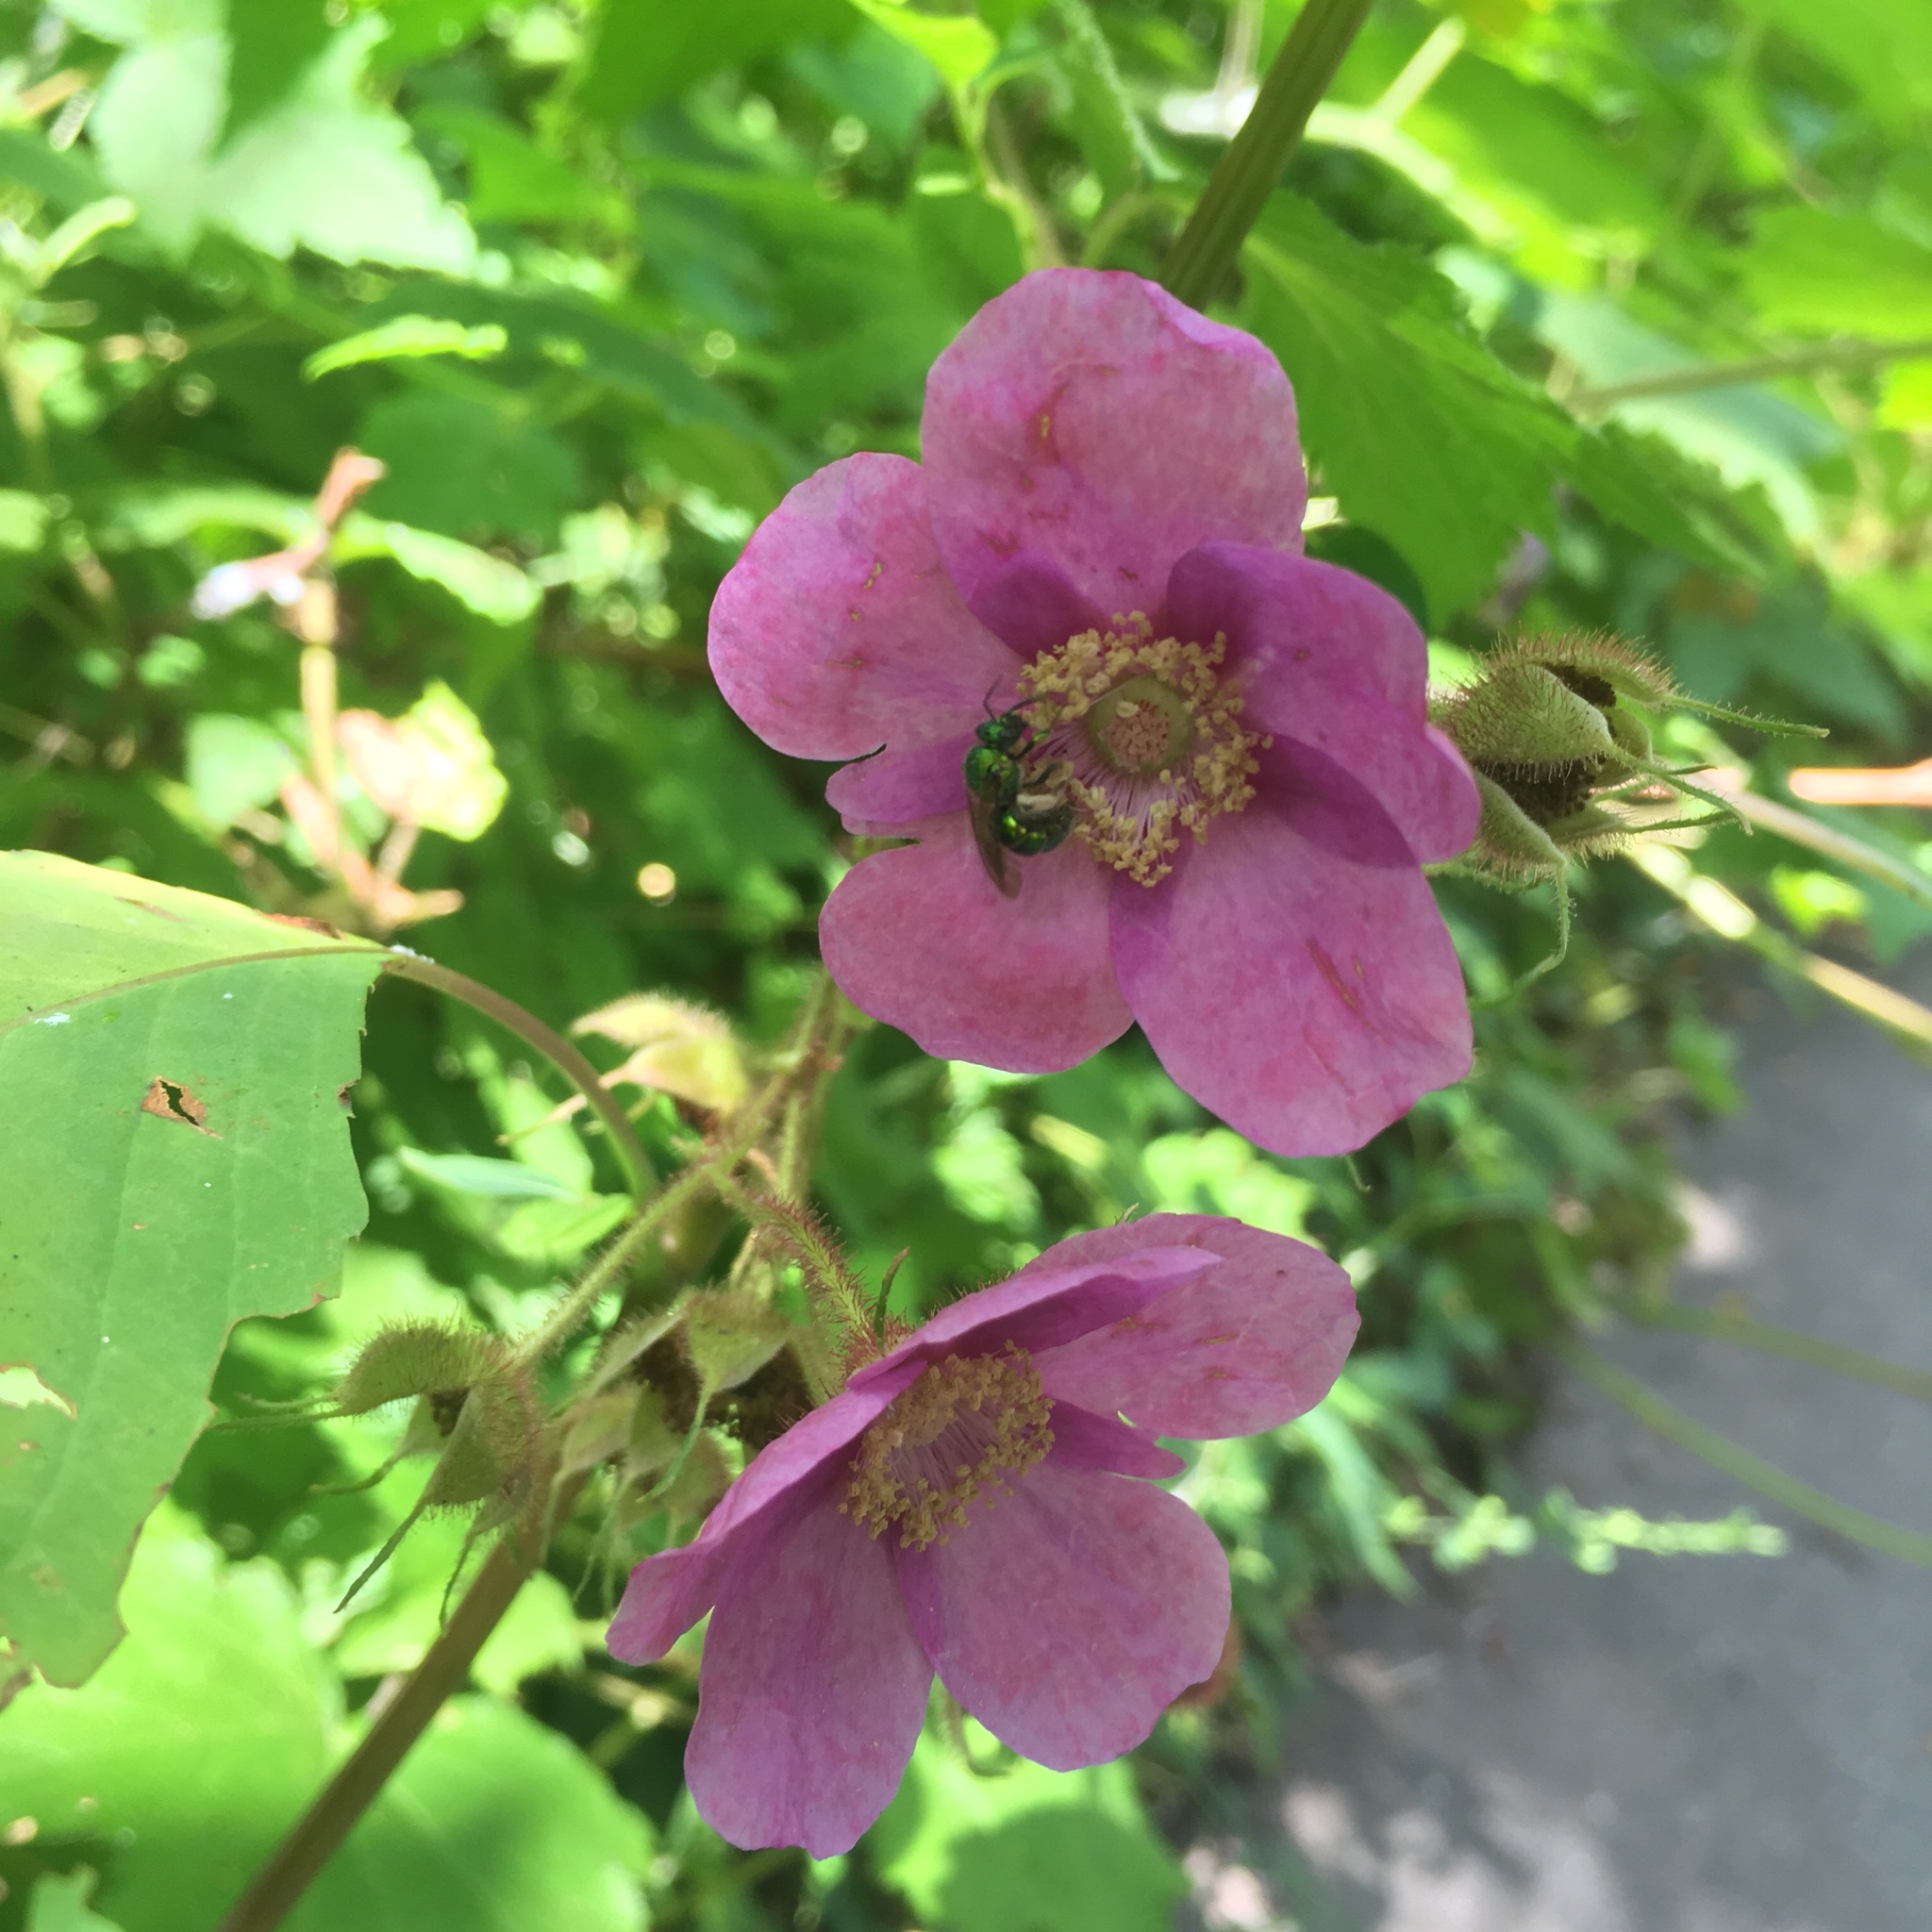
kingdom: Plantae
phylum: Tracheophyta
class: Magnoliopsida
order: Rosales
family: Rosaceae
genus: Rubus
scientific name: Rubus odoratus
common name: Purple-flowered raspberry
